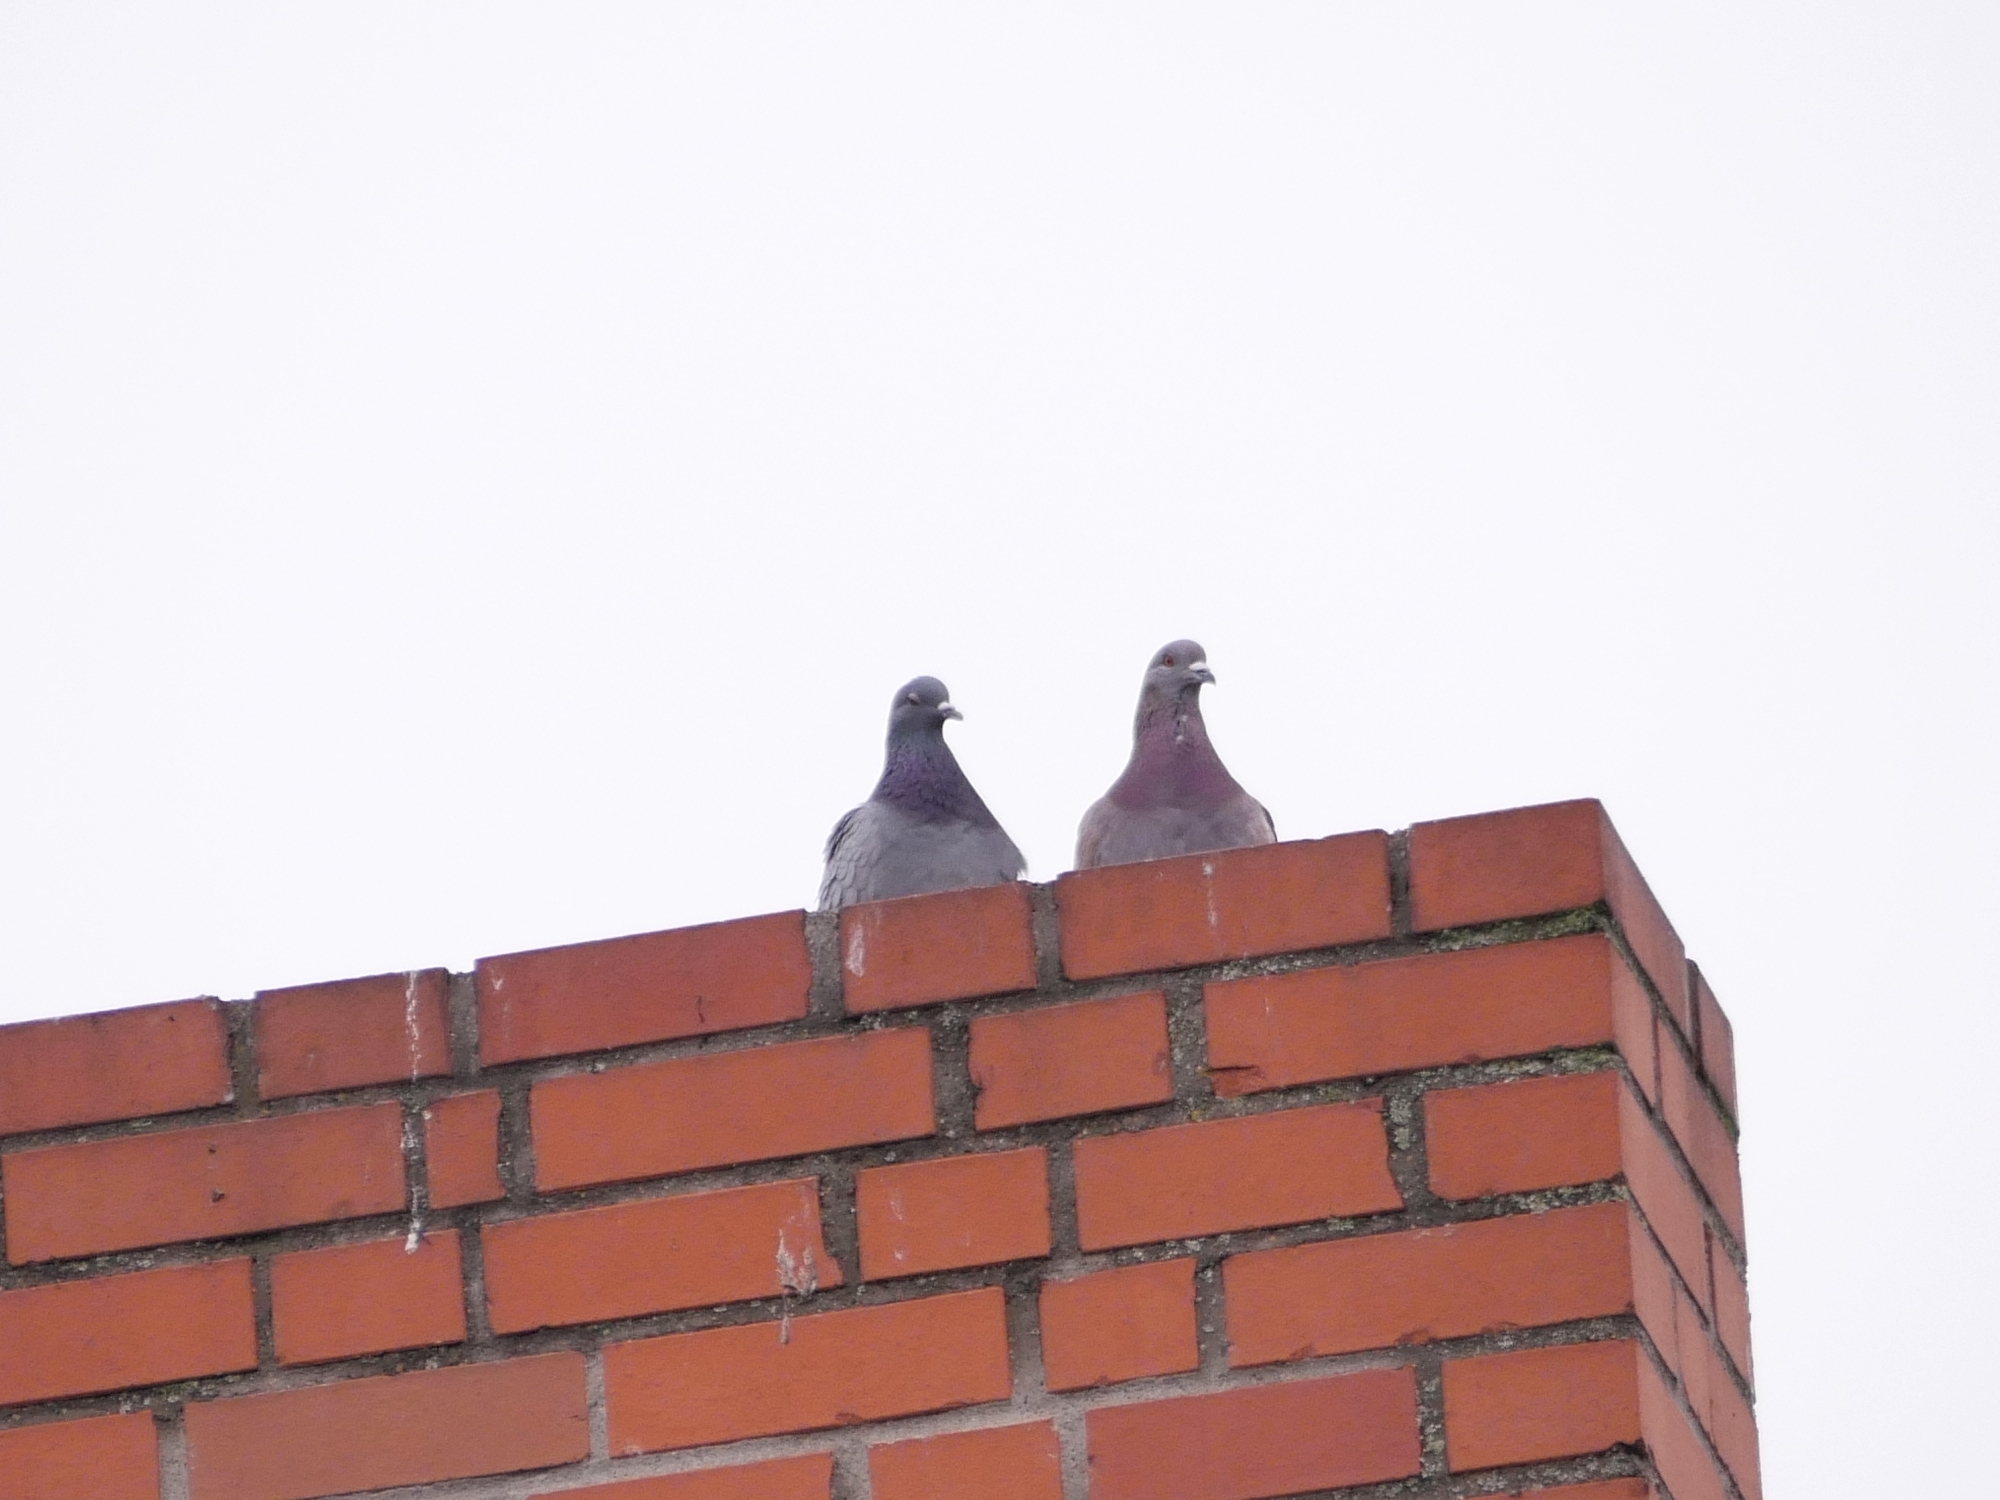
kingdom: Animalia
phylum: Chordata
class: Aves
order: Columbiformes
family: Columbidae
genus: Columba
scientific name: Columba livia
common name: Rock pigeon
